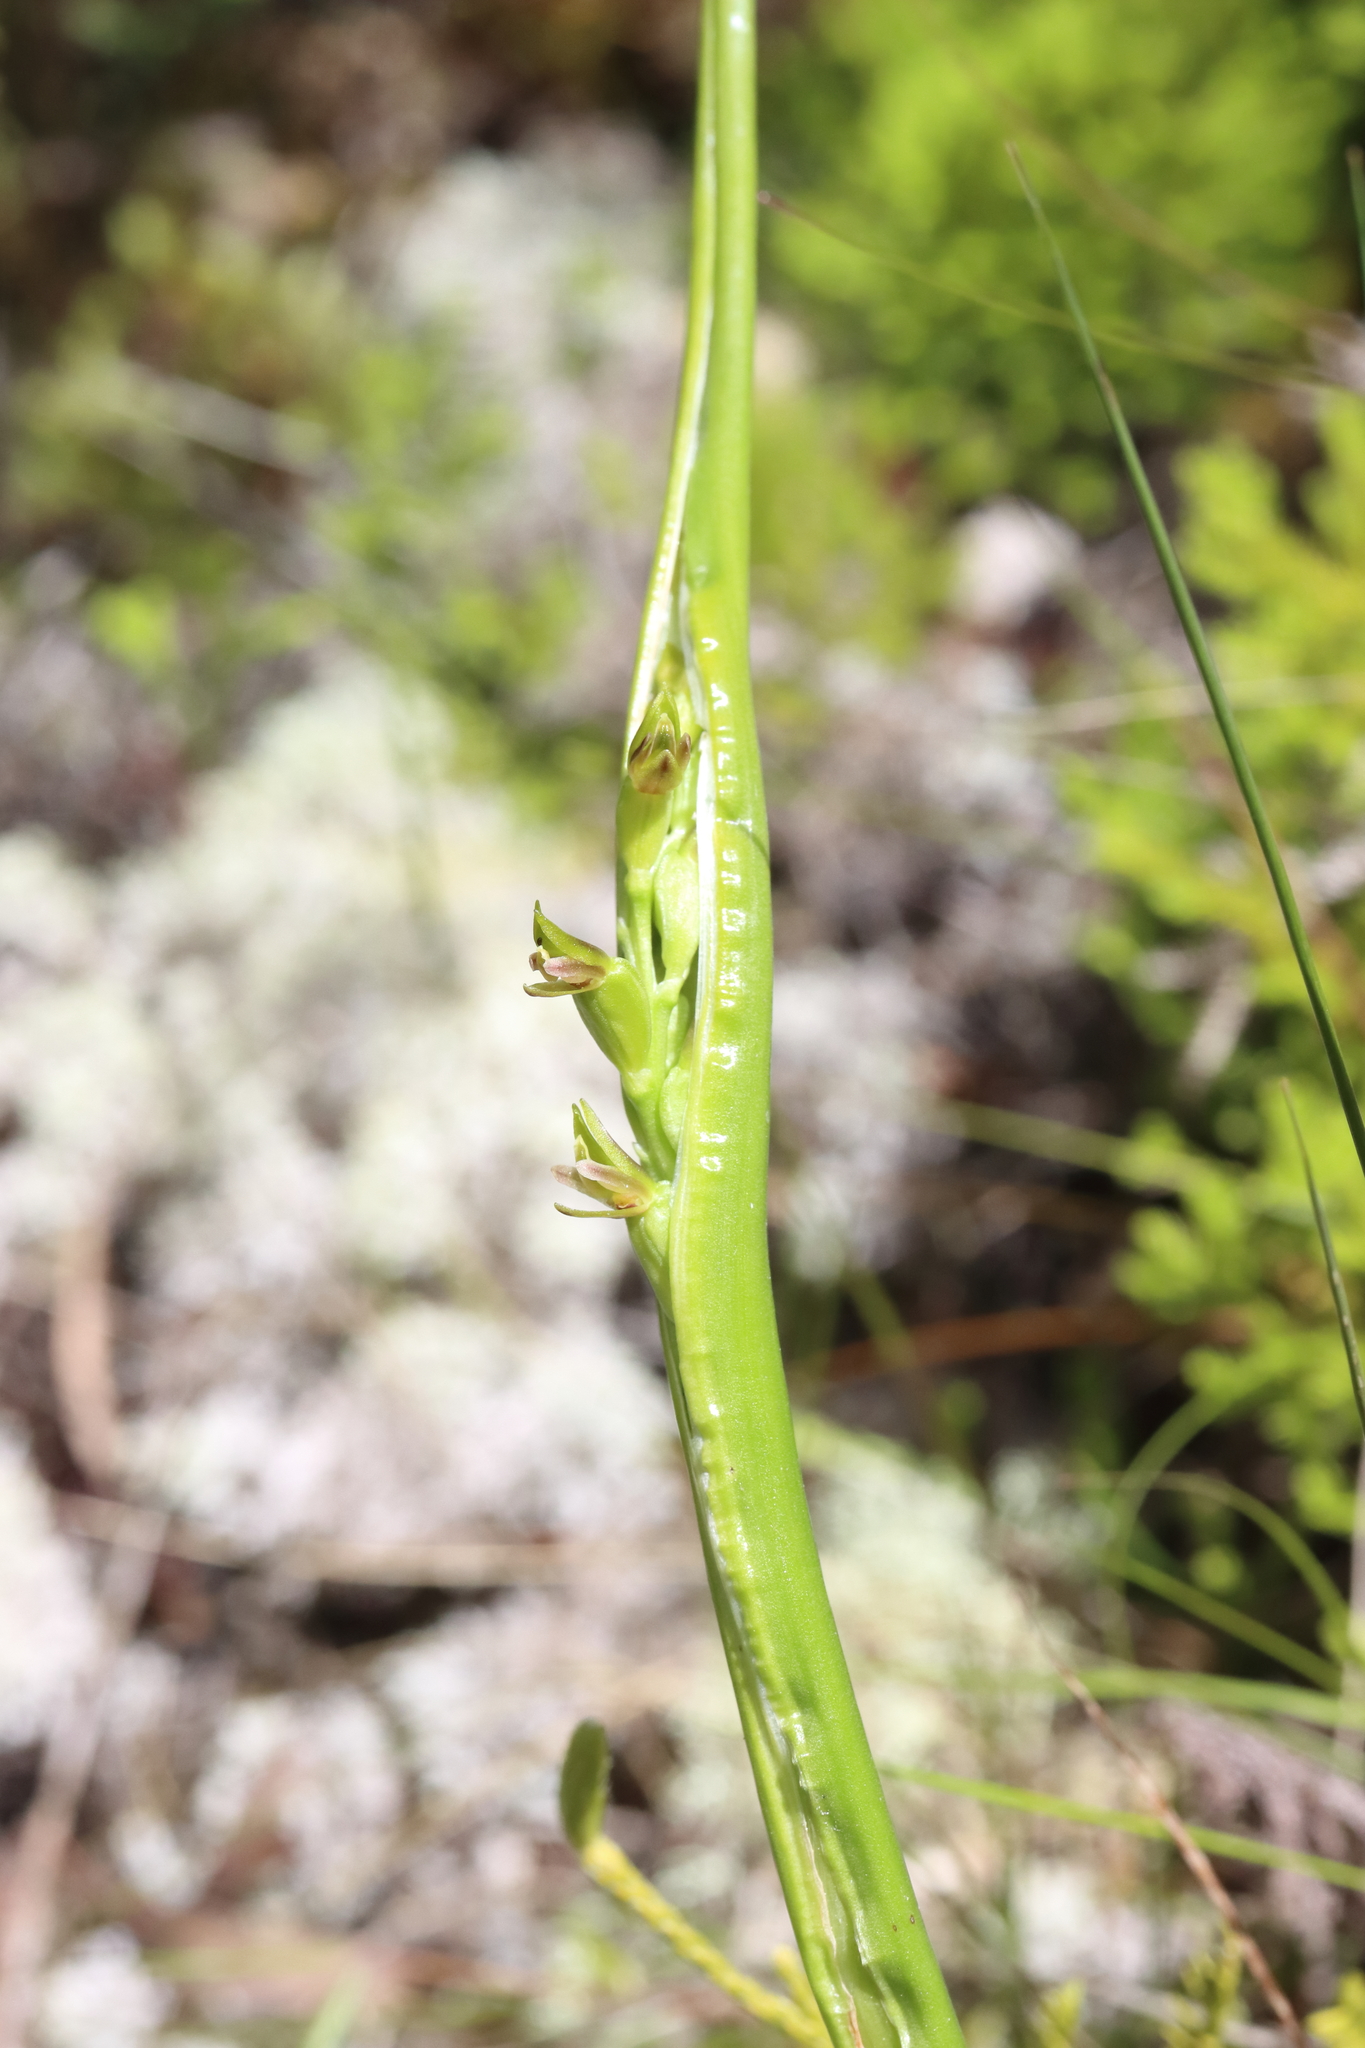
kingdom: Plantae
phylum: Tracheophyta
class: Liliopsida
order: Asparagales
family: Orchidaceae
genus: Prasophyllum
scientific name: Prasophyllum colensoi
